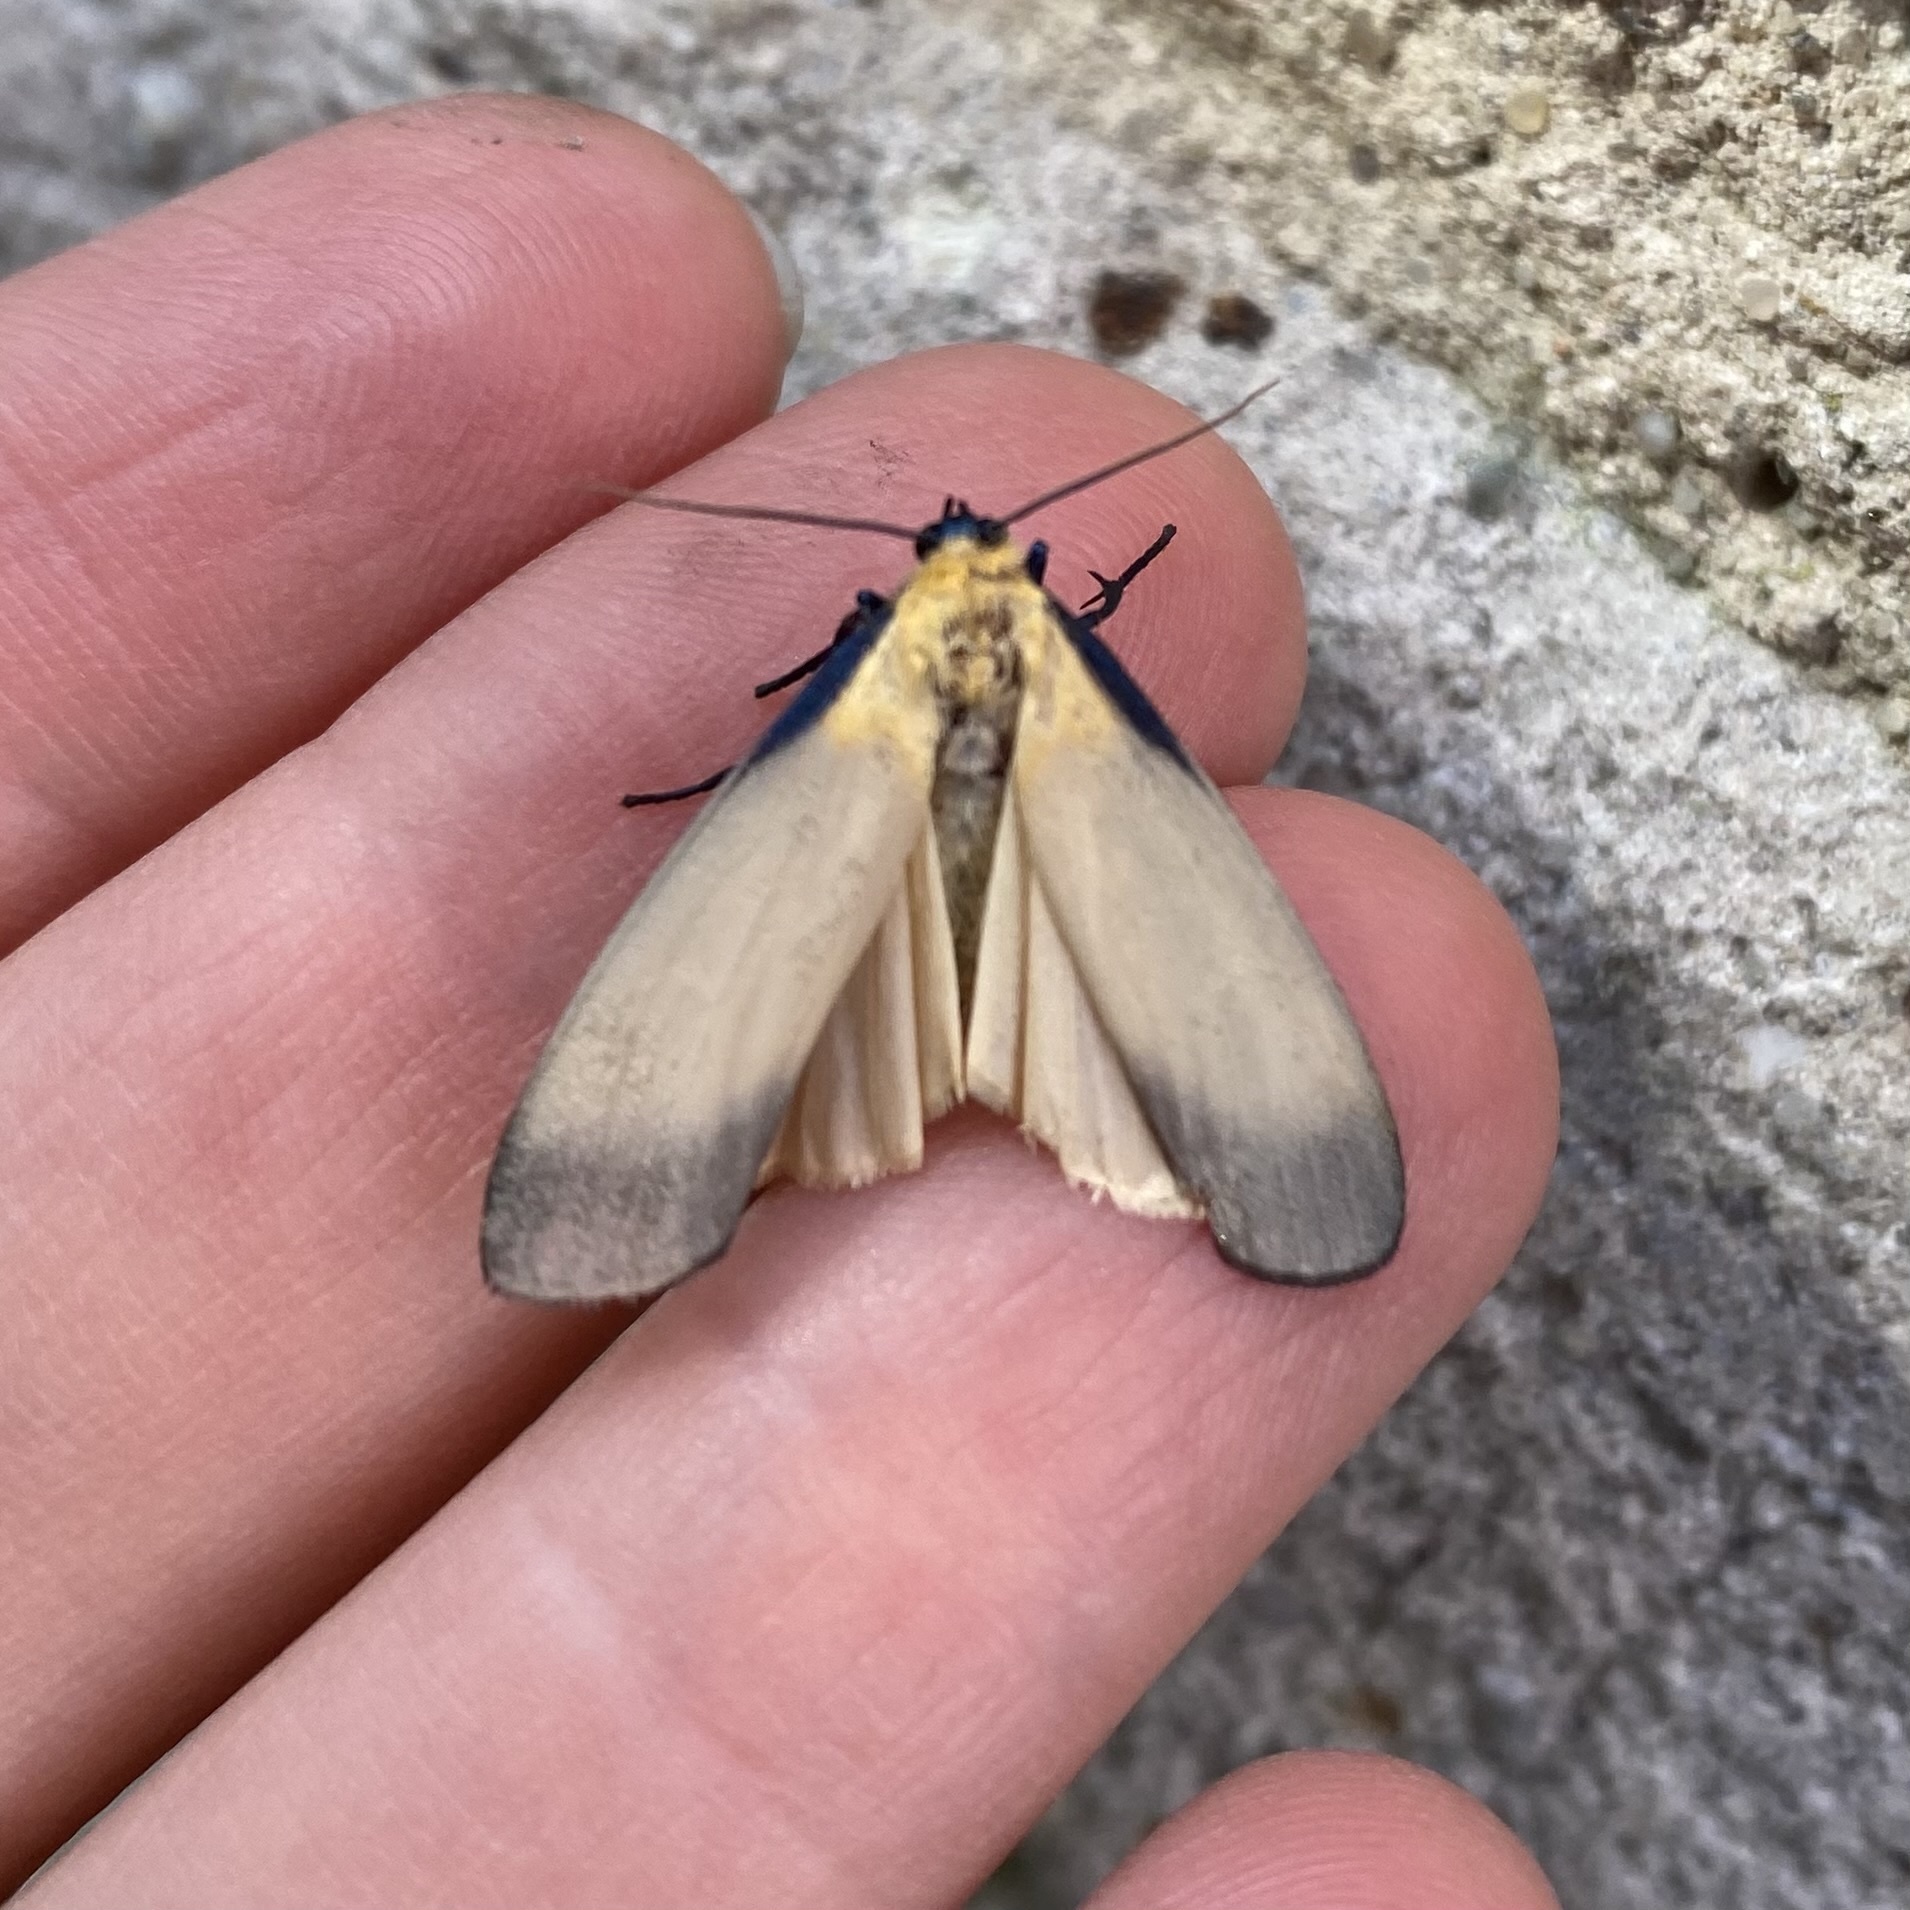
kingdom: Animalia
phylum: Arthropoda
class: Insecta
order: Lepidoptera
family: Erebidae
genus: Lithosia
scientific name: Lithosia quadra
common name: Four-spotted footman
